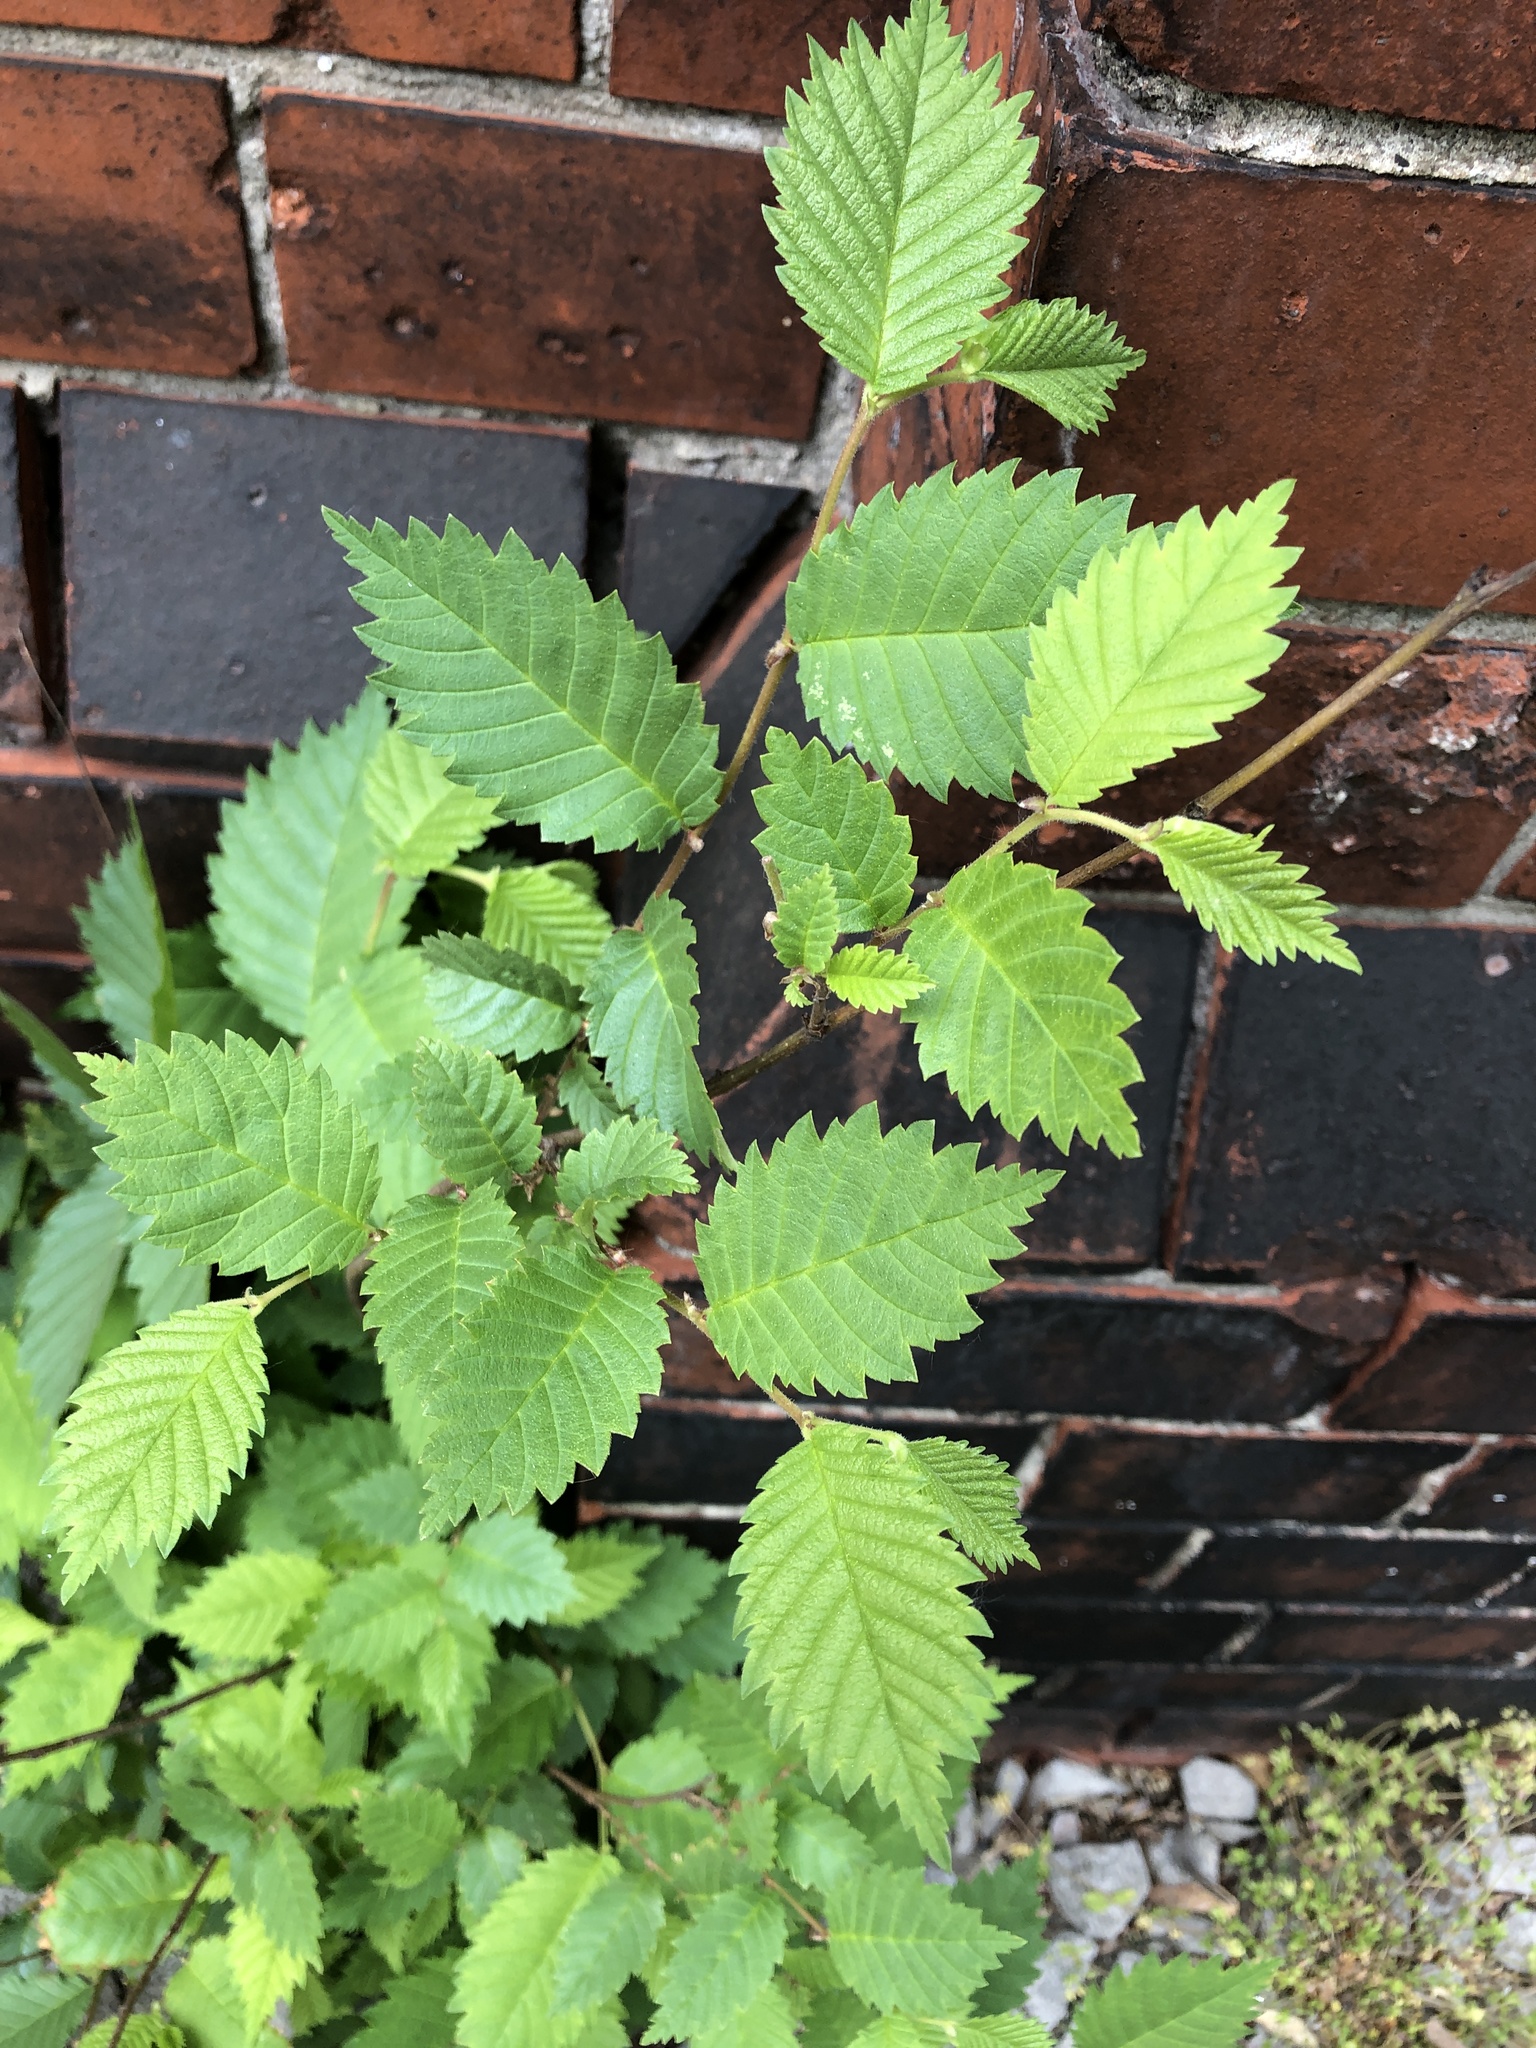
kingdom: Plantae
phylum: Tracheophyta
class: Magnoliopsida
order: Rosales
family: Ulmaceae
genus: Ulmus
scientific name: Ulmus minor
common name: Small-leaved elm
